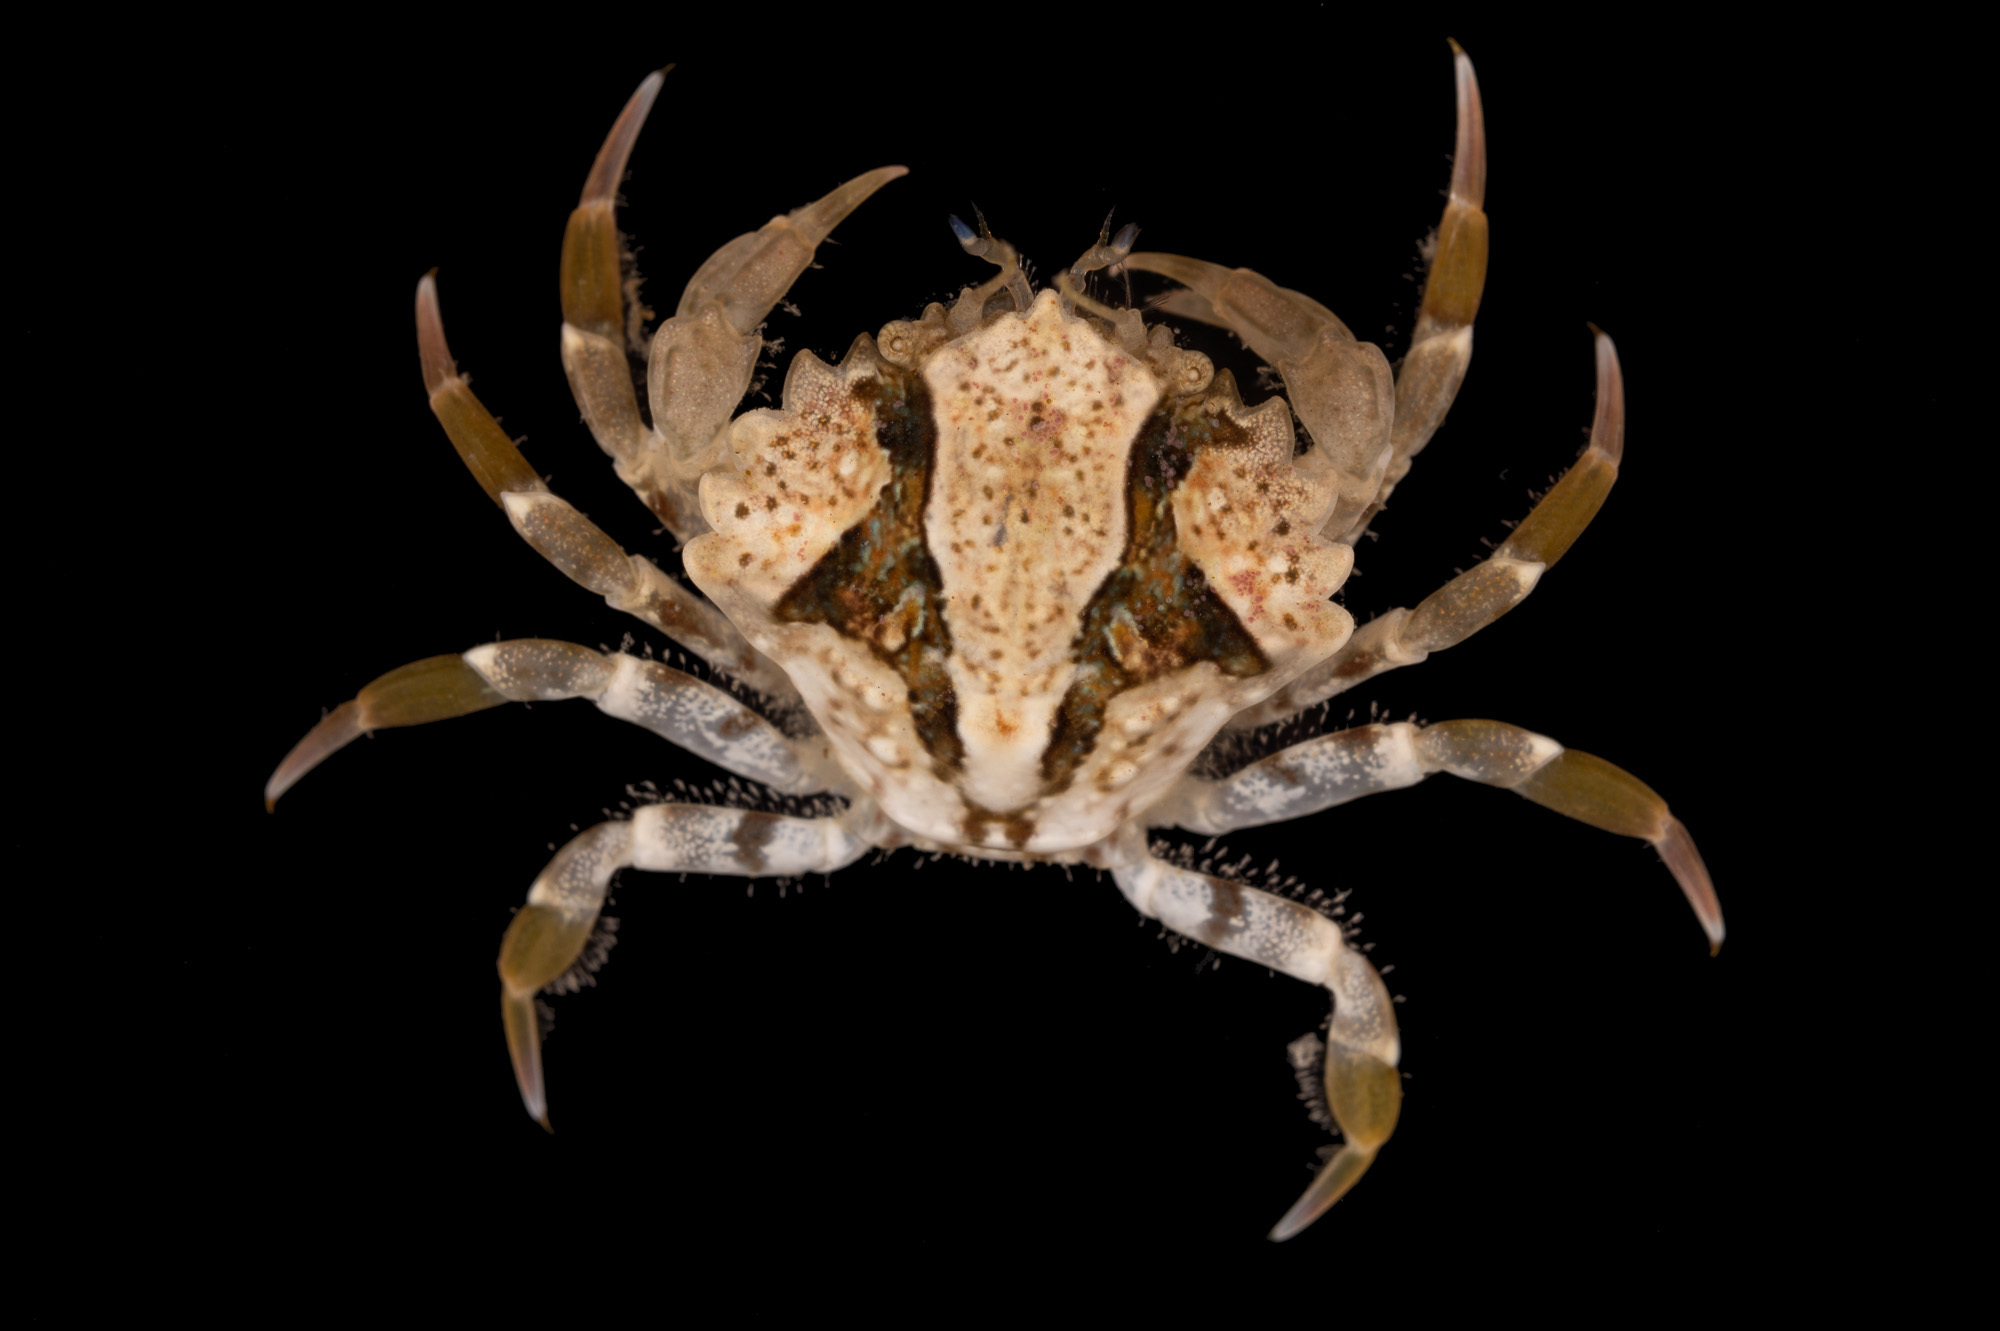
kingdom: Animalia
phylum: Arthropoda
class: Malacostraca
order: Decapoda
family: Pirimelidae
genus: Pirimela
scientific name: Pirimela denticulata
